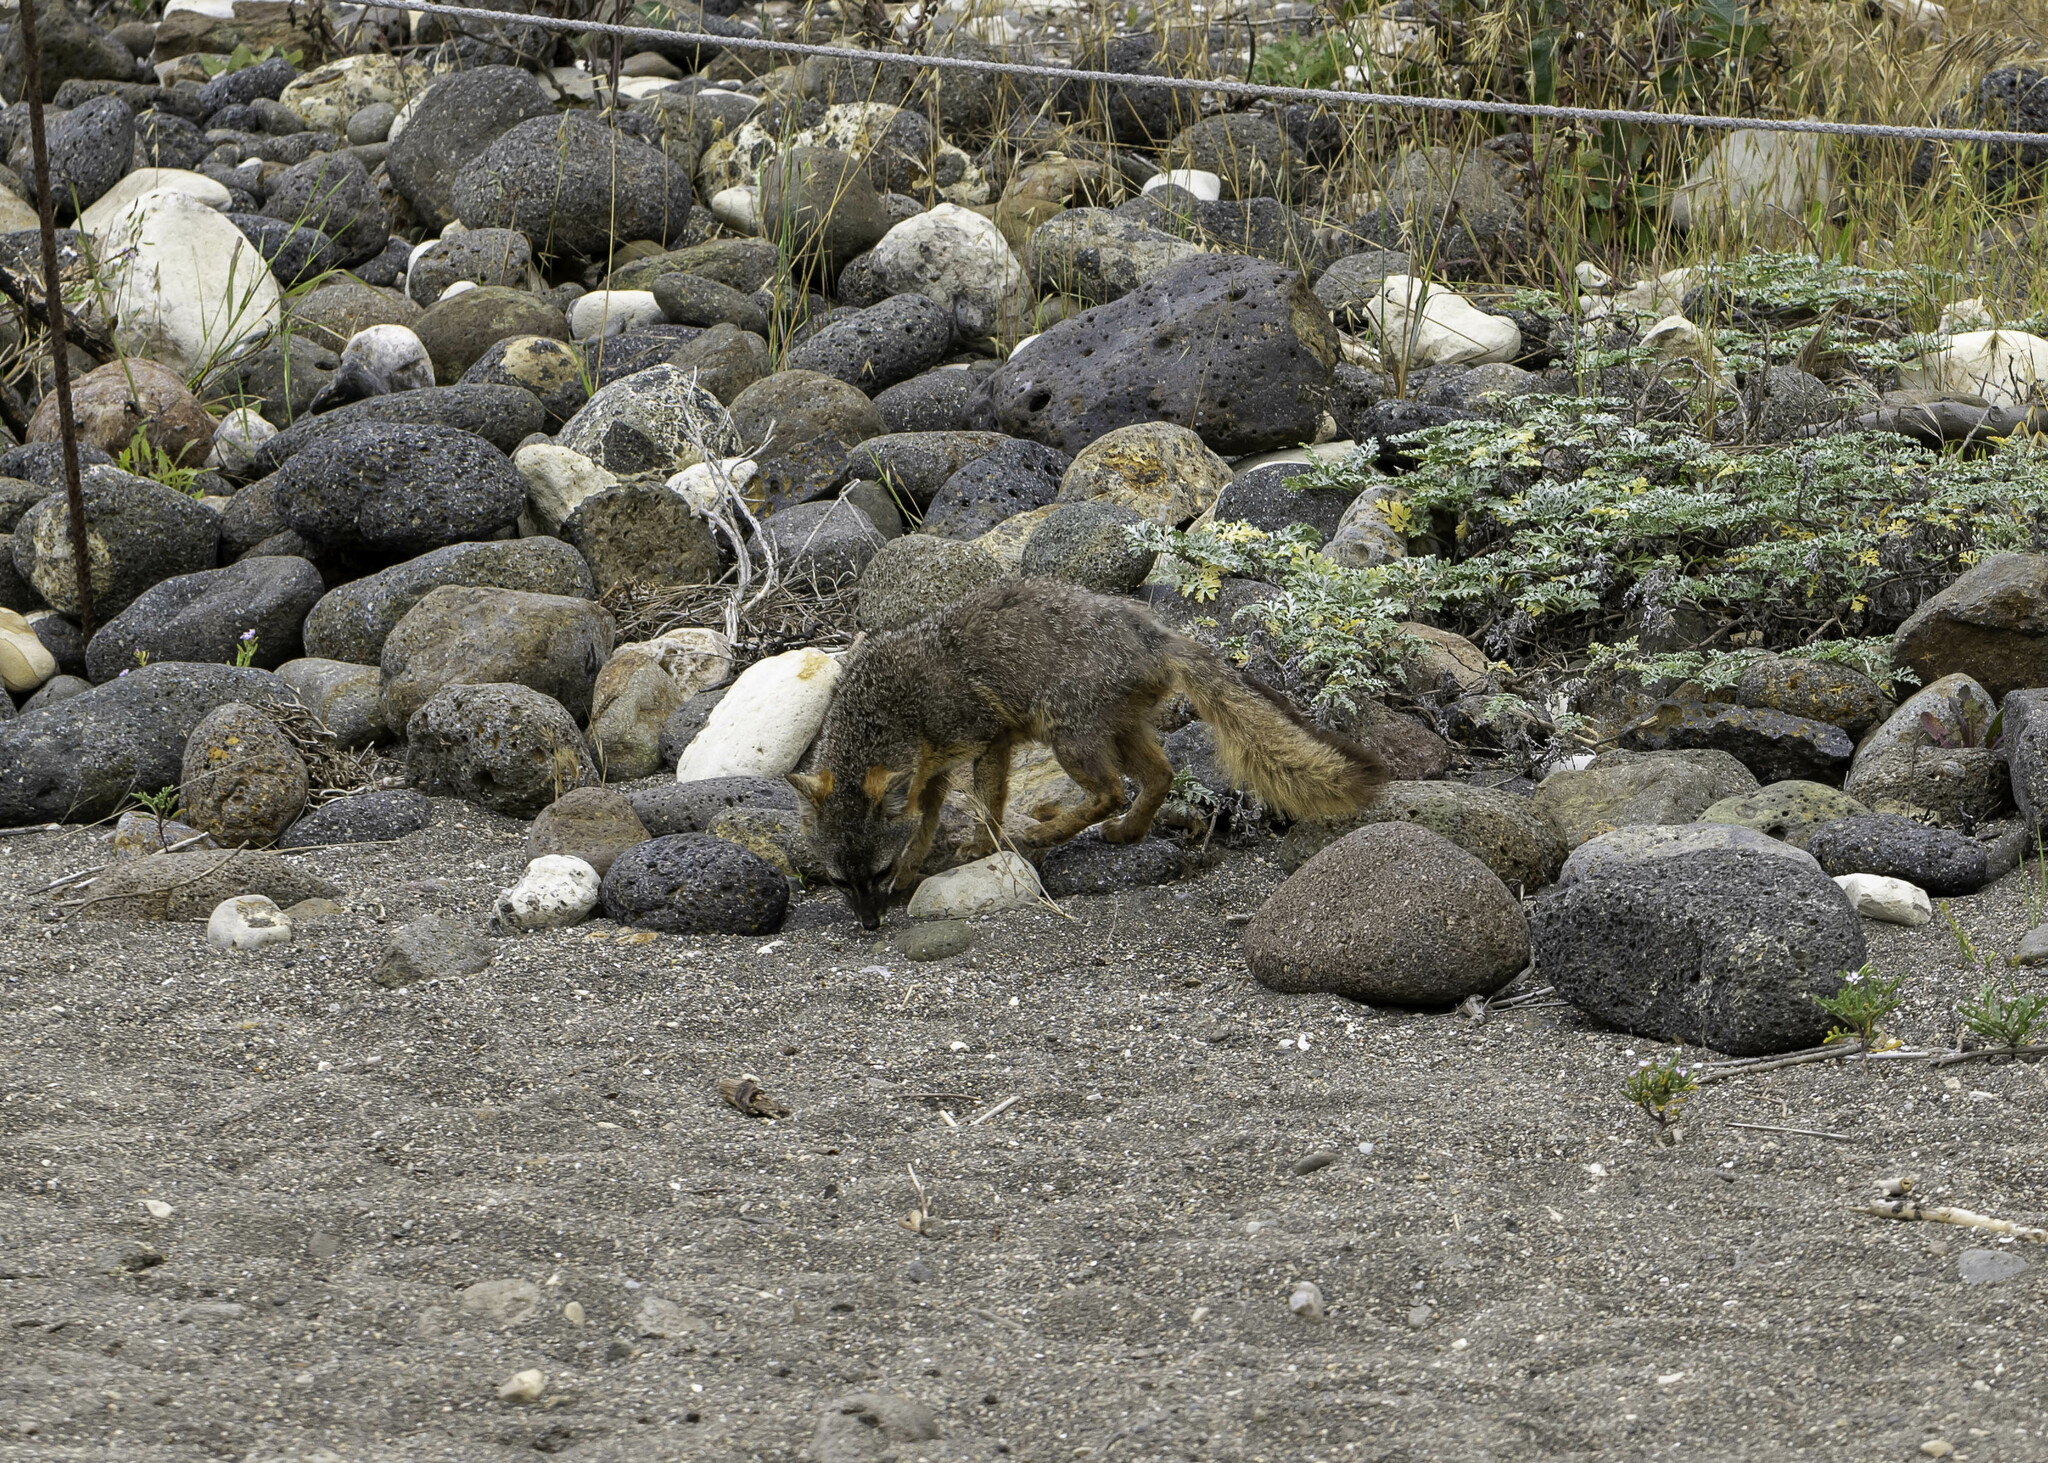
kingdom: Animalia
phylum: Chordata
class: Mammalia
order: Carnivora
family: Canidae
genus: Urocyon
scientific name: Urocyon littoralis
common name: Island gray fox
